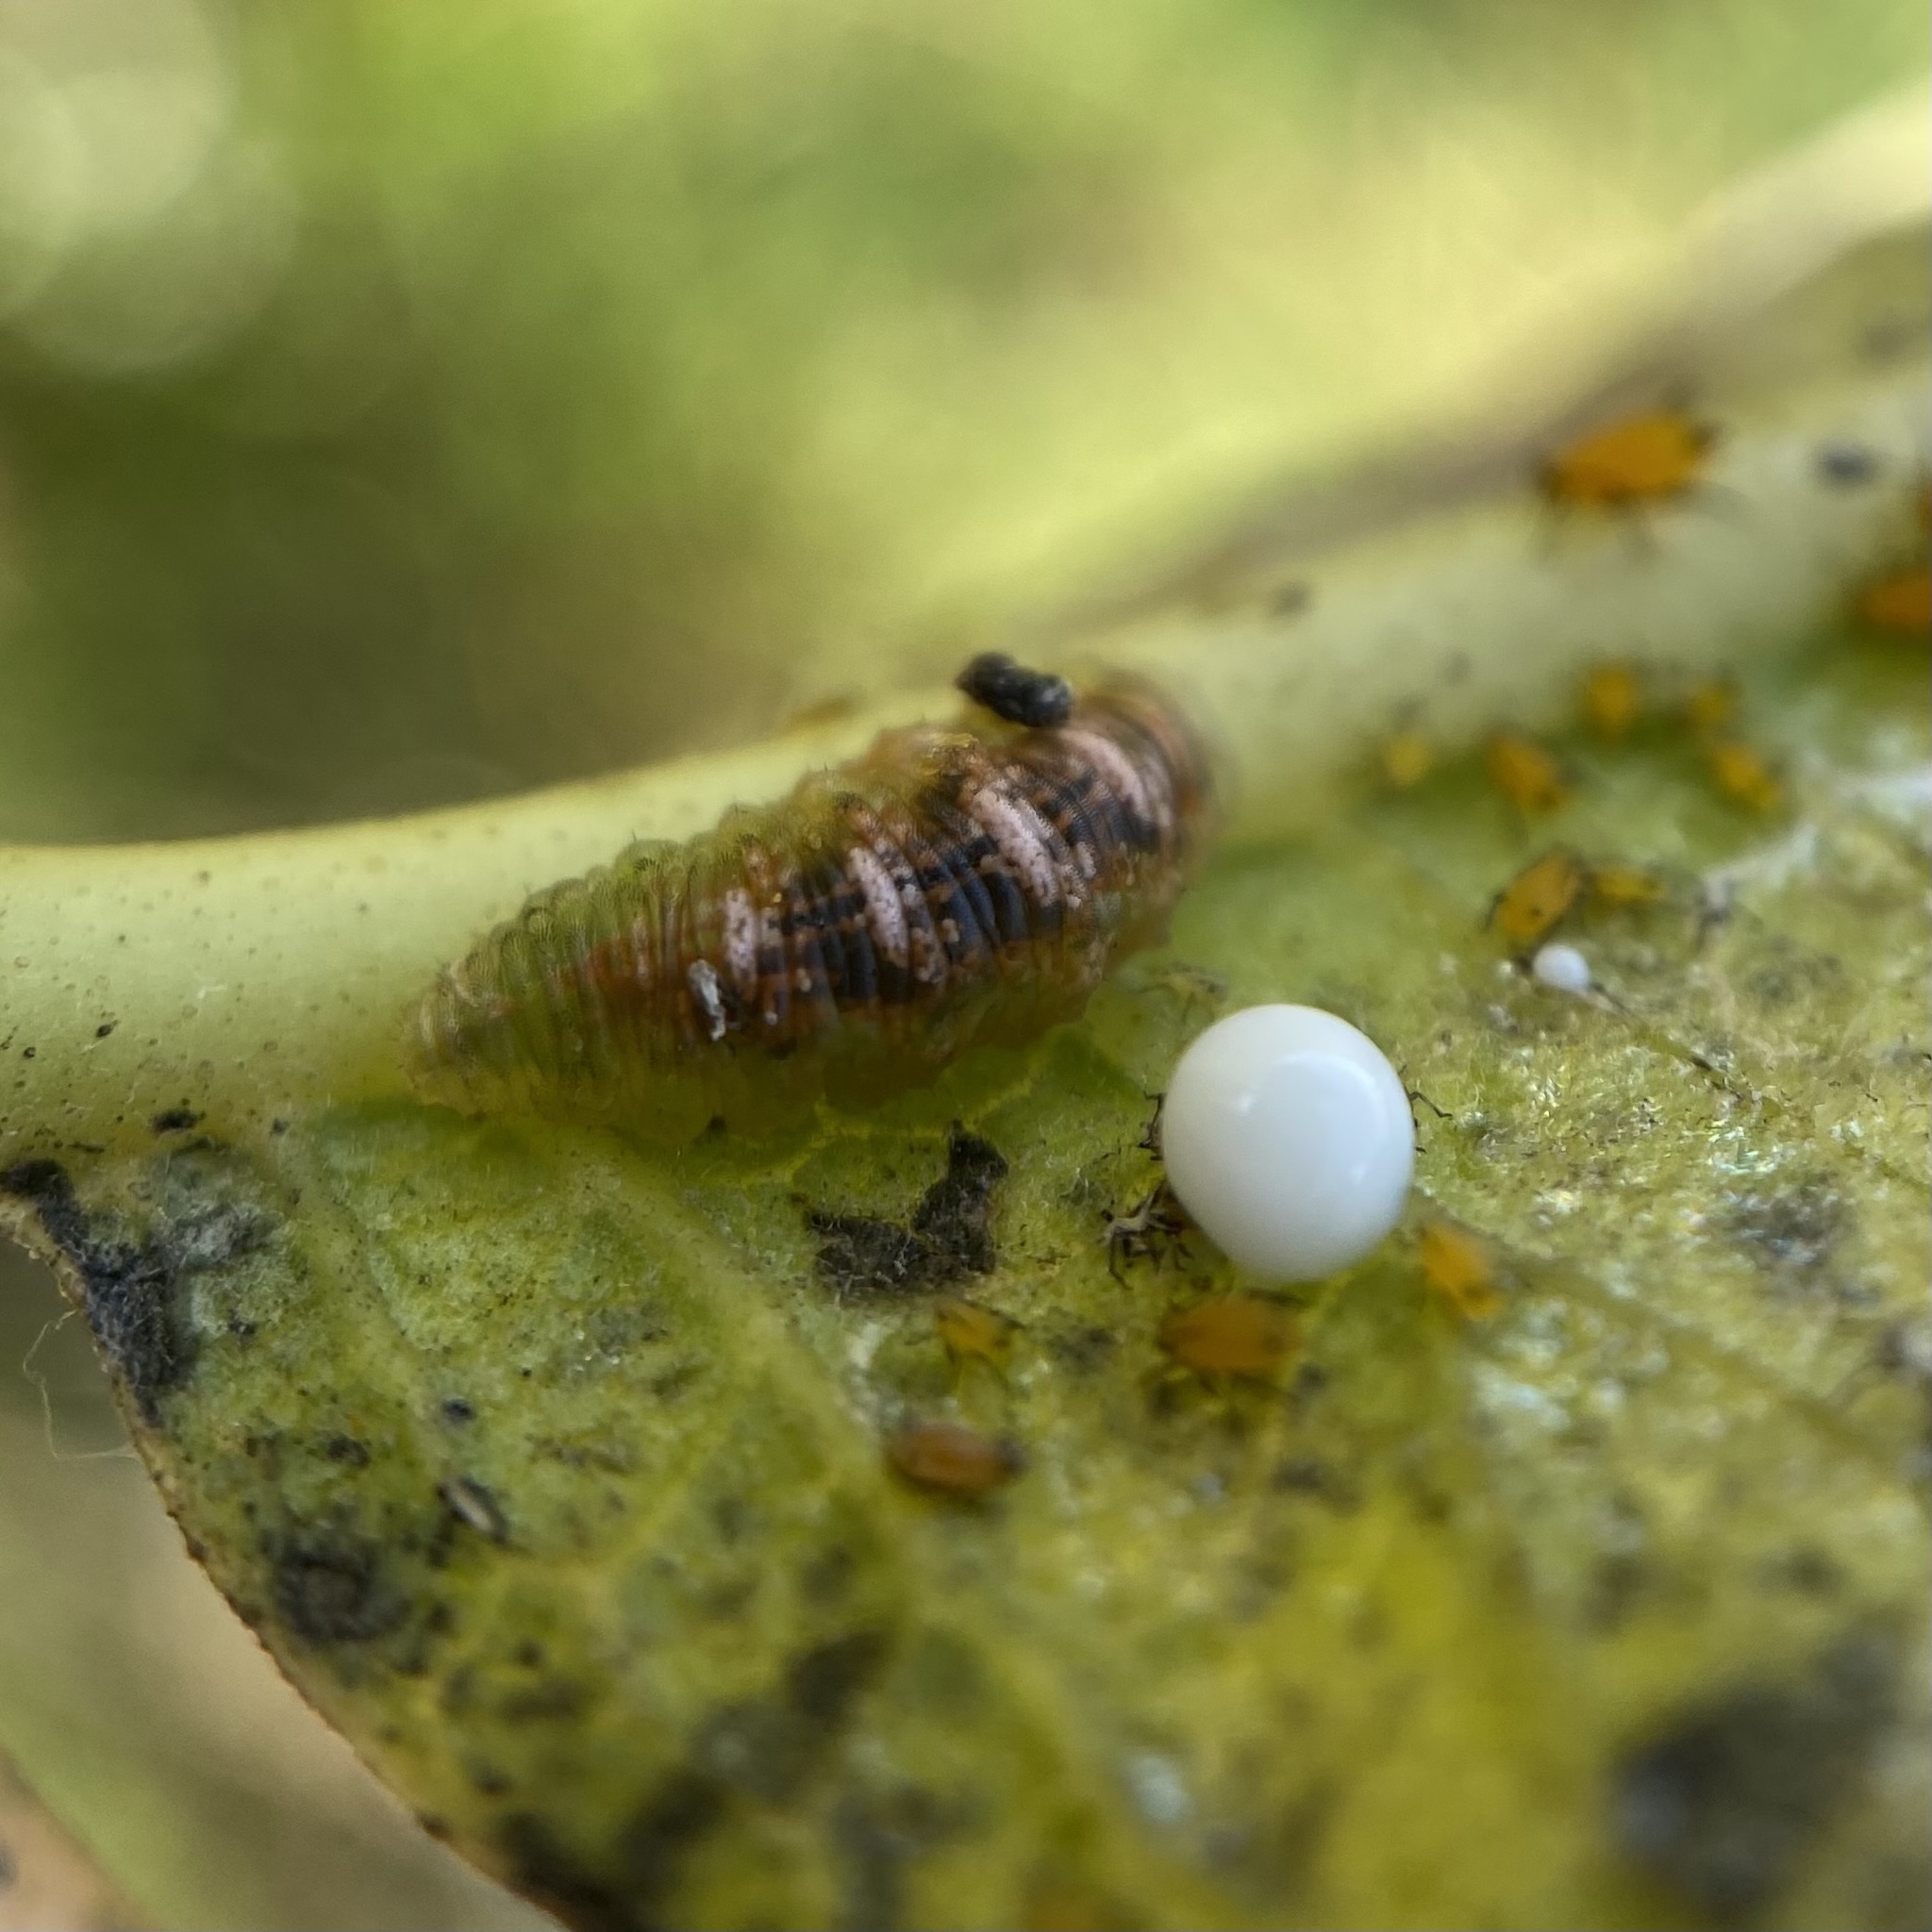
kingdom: Animalia
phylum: Arthropoda
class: Insecta
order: Diptera
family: Syrphidae
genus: Eupeodes
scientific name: Eupeodes pomus
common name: Short-tailed aphideater
